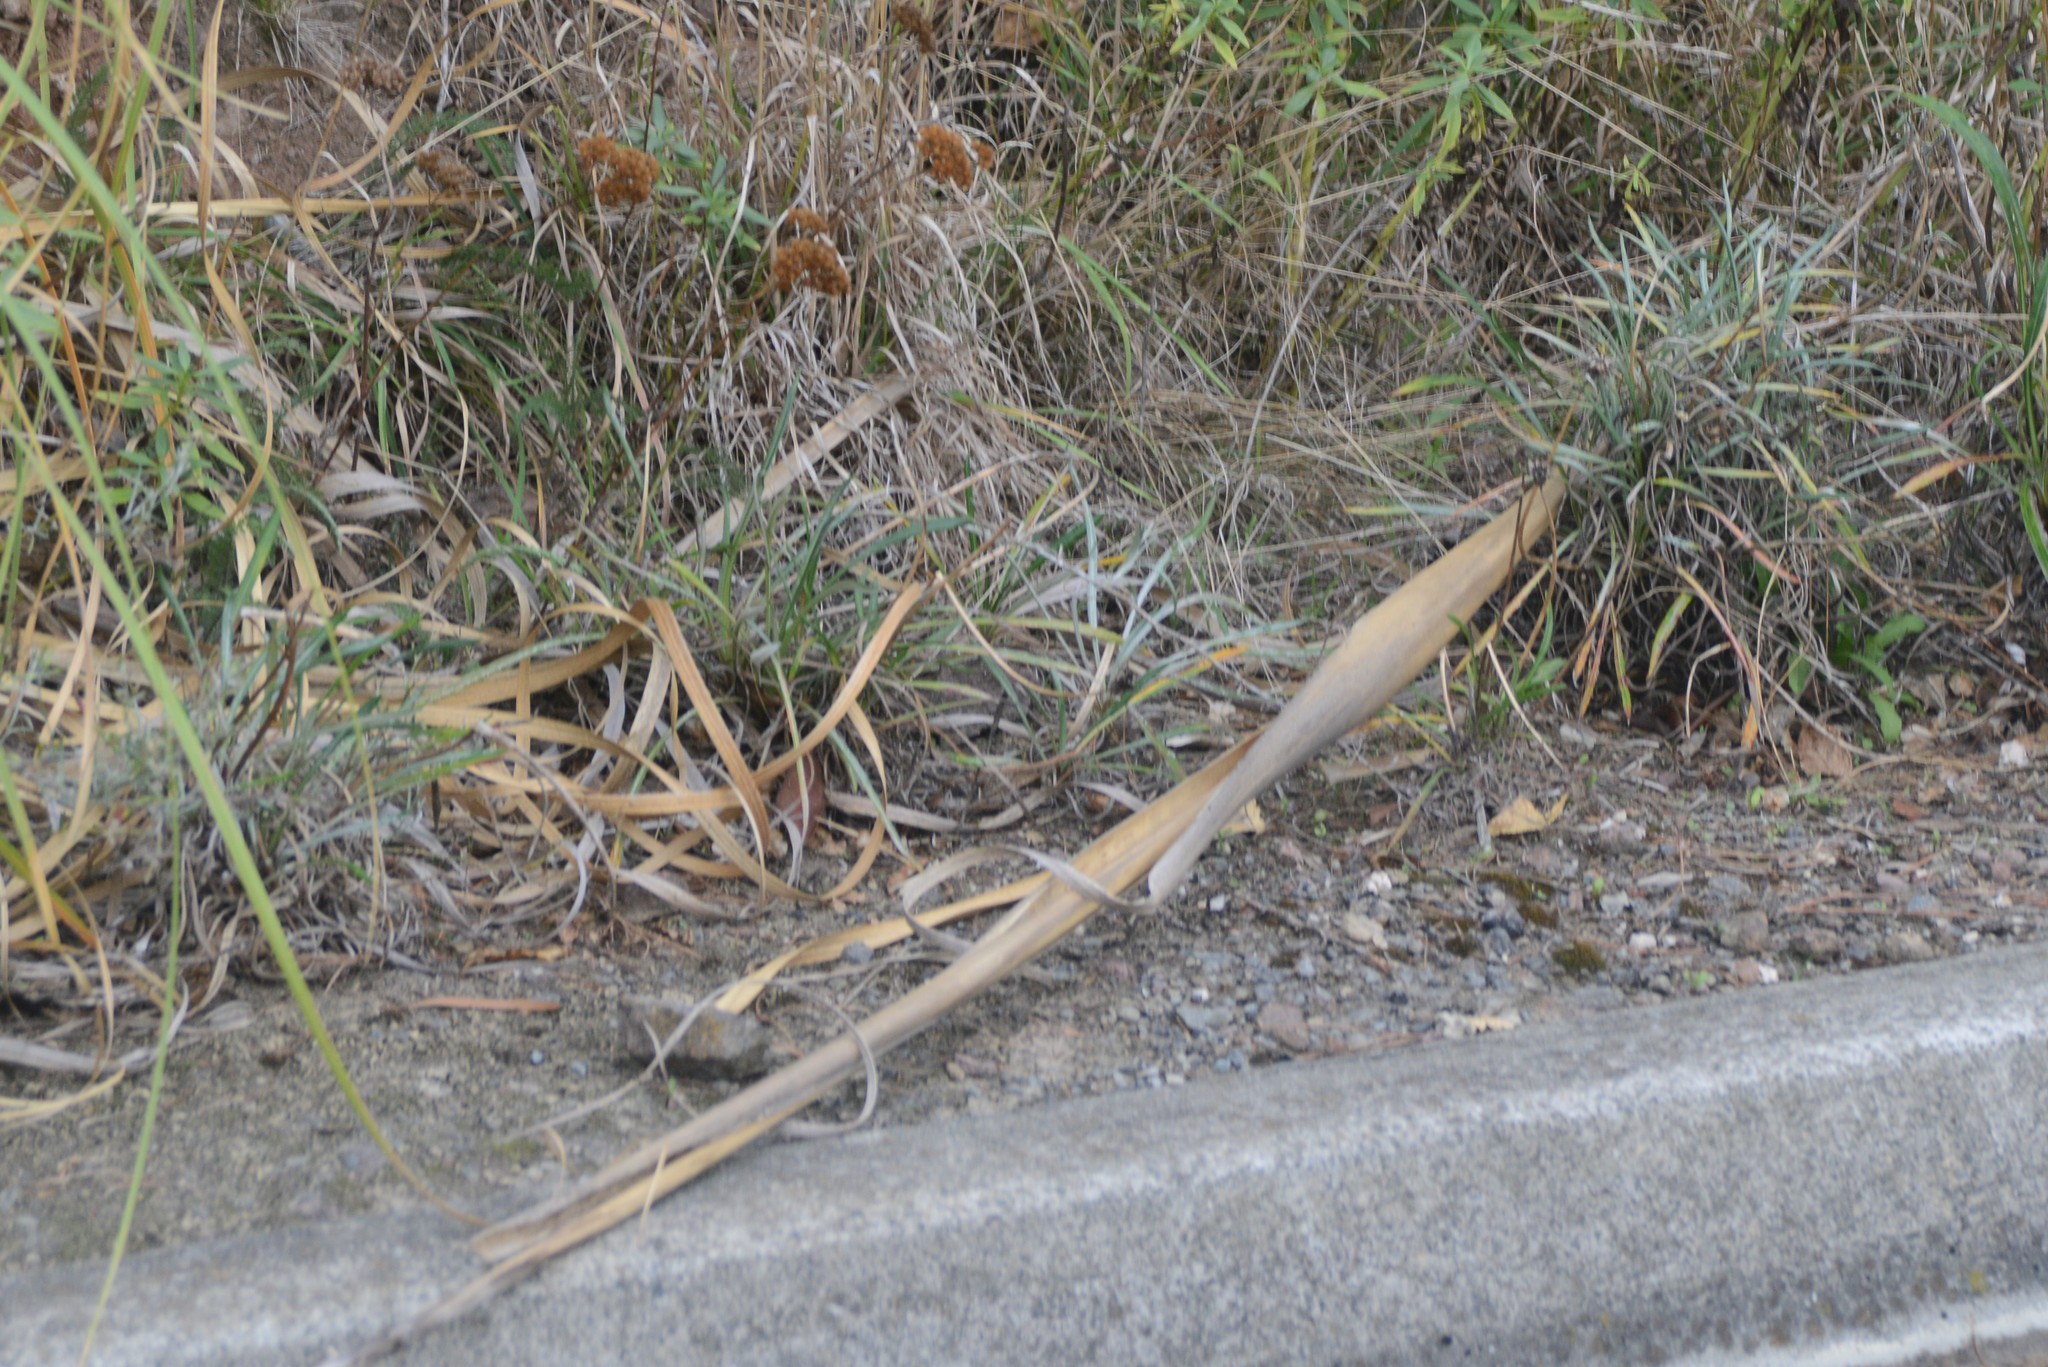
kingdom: Plantae
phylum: Tracheophyta
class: Magnoliopsida
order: Asterales
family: Asteraceae
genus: Senecio
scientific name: Senecio quadridentatus
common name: Cotton fireweed
